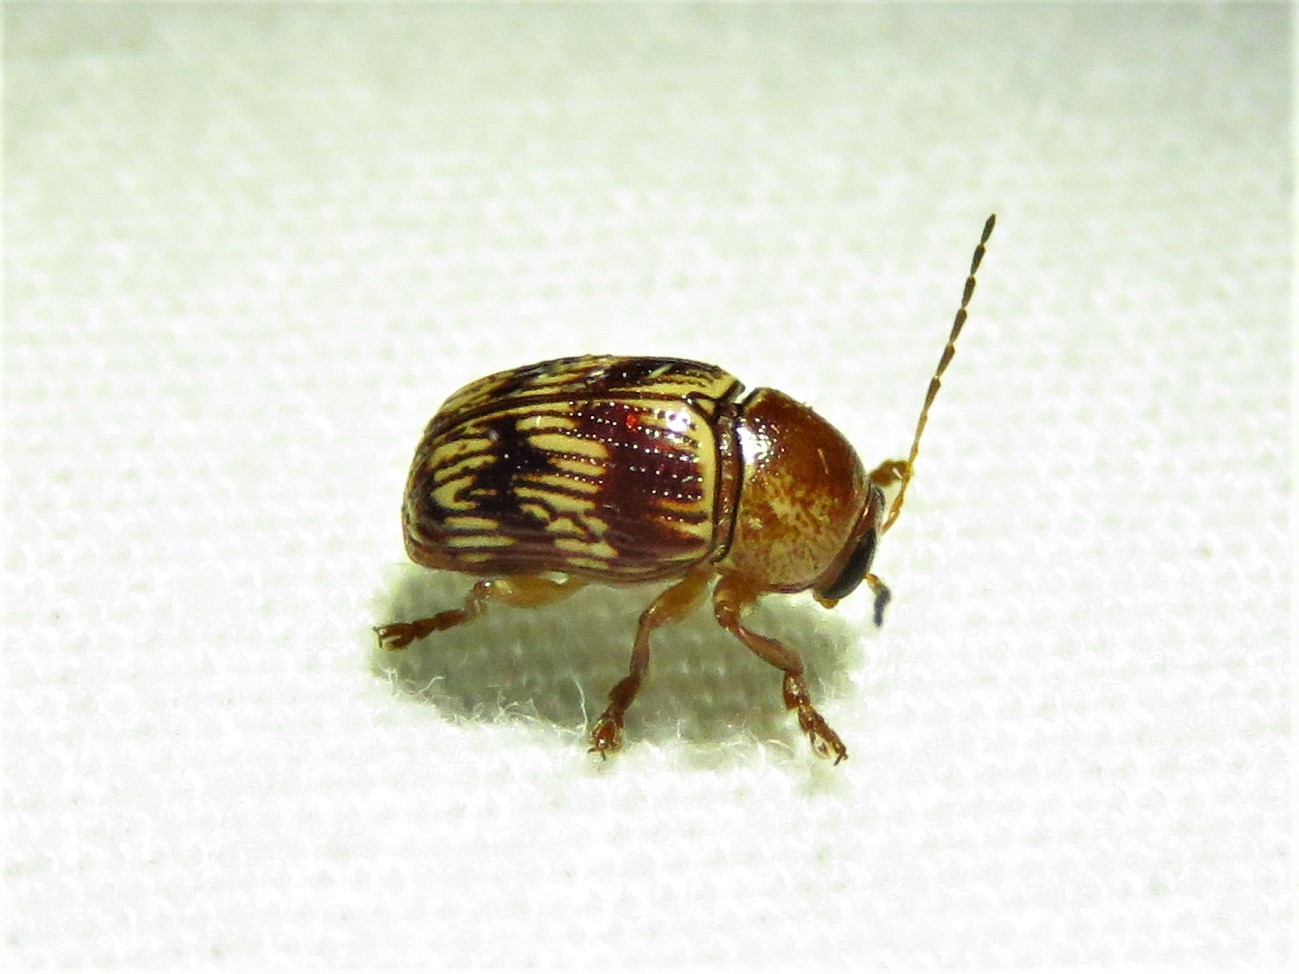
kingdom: Animalia
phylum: Arthropoda
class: Insecta
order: Coleoptera
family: Chrysomelidae
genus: Cryptocephalus
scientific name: Cryptocephalus implacidus
